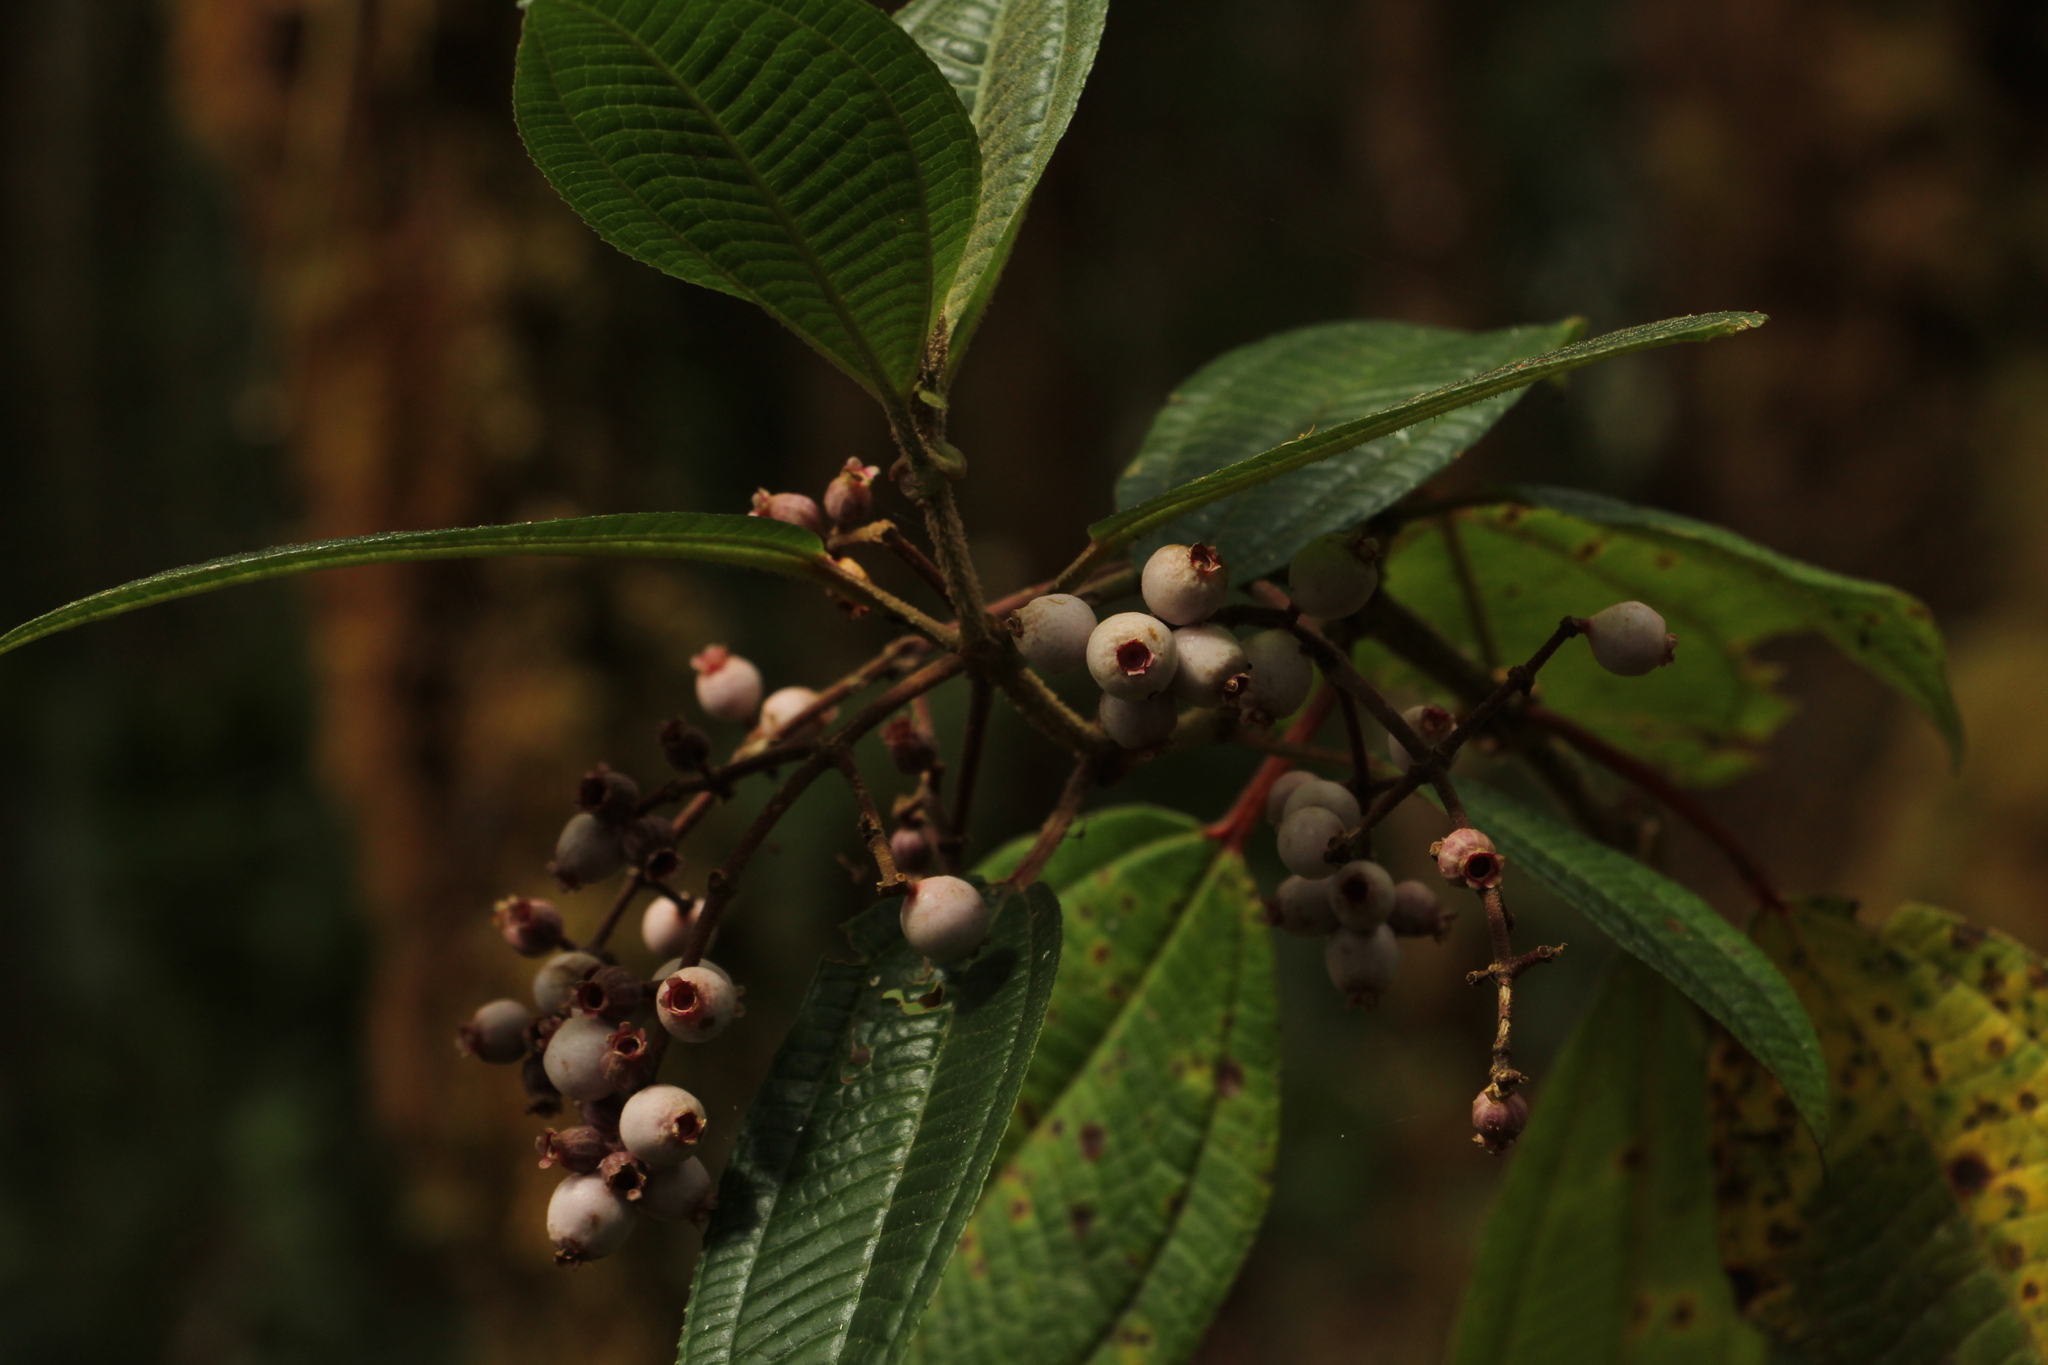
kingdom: Plantae
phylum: Tracheophyta
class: Magnoliopsida
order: Myrtales
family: Melastomataceae
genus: Miconia
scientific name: Miconia stipularis
